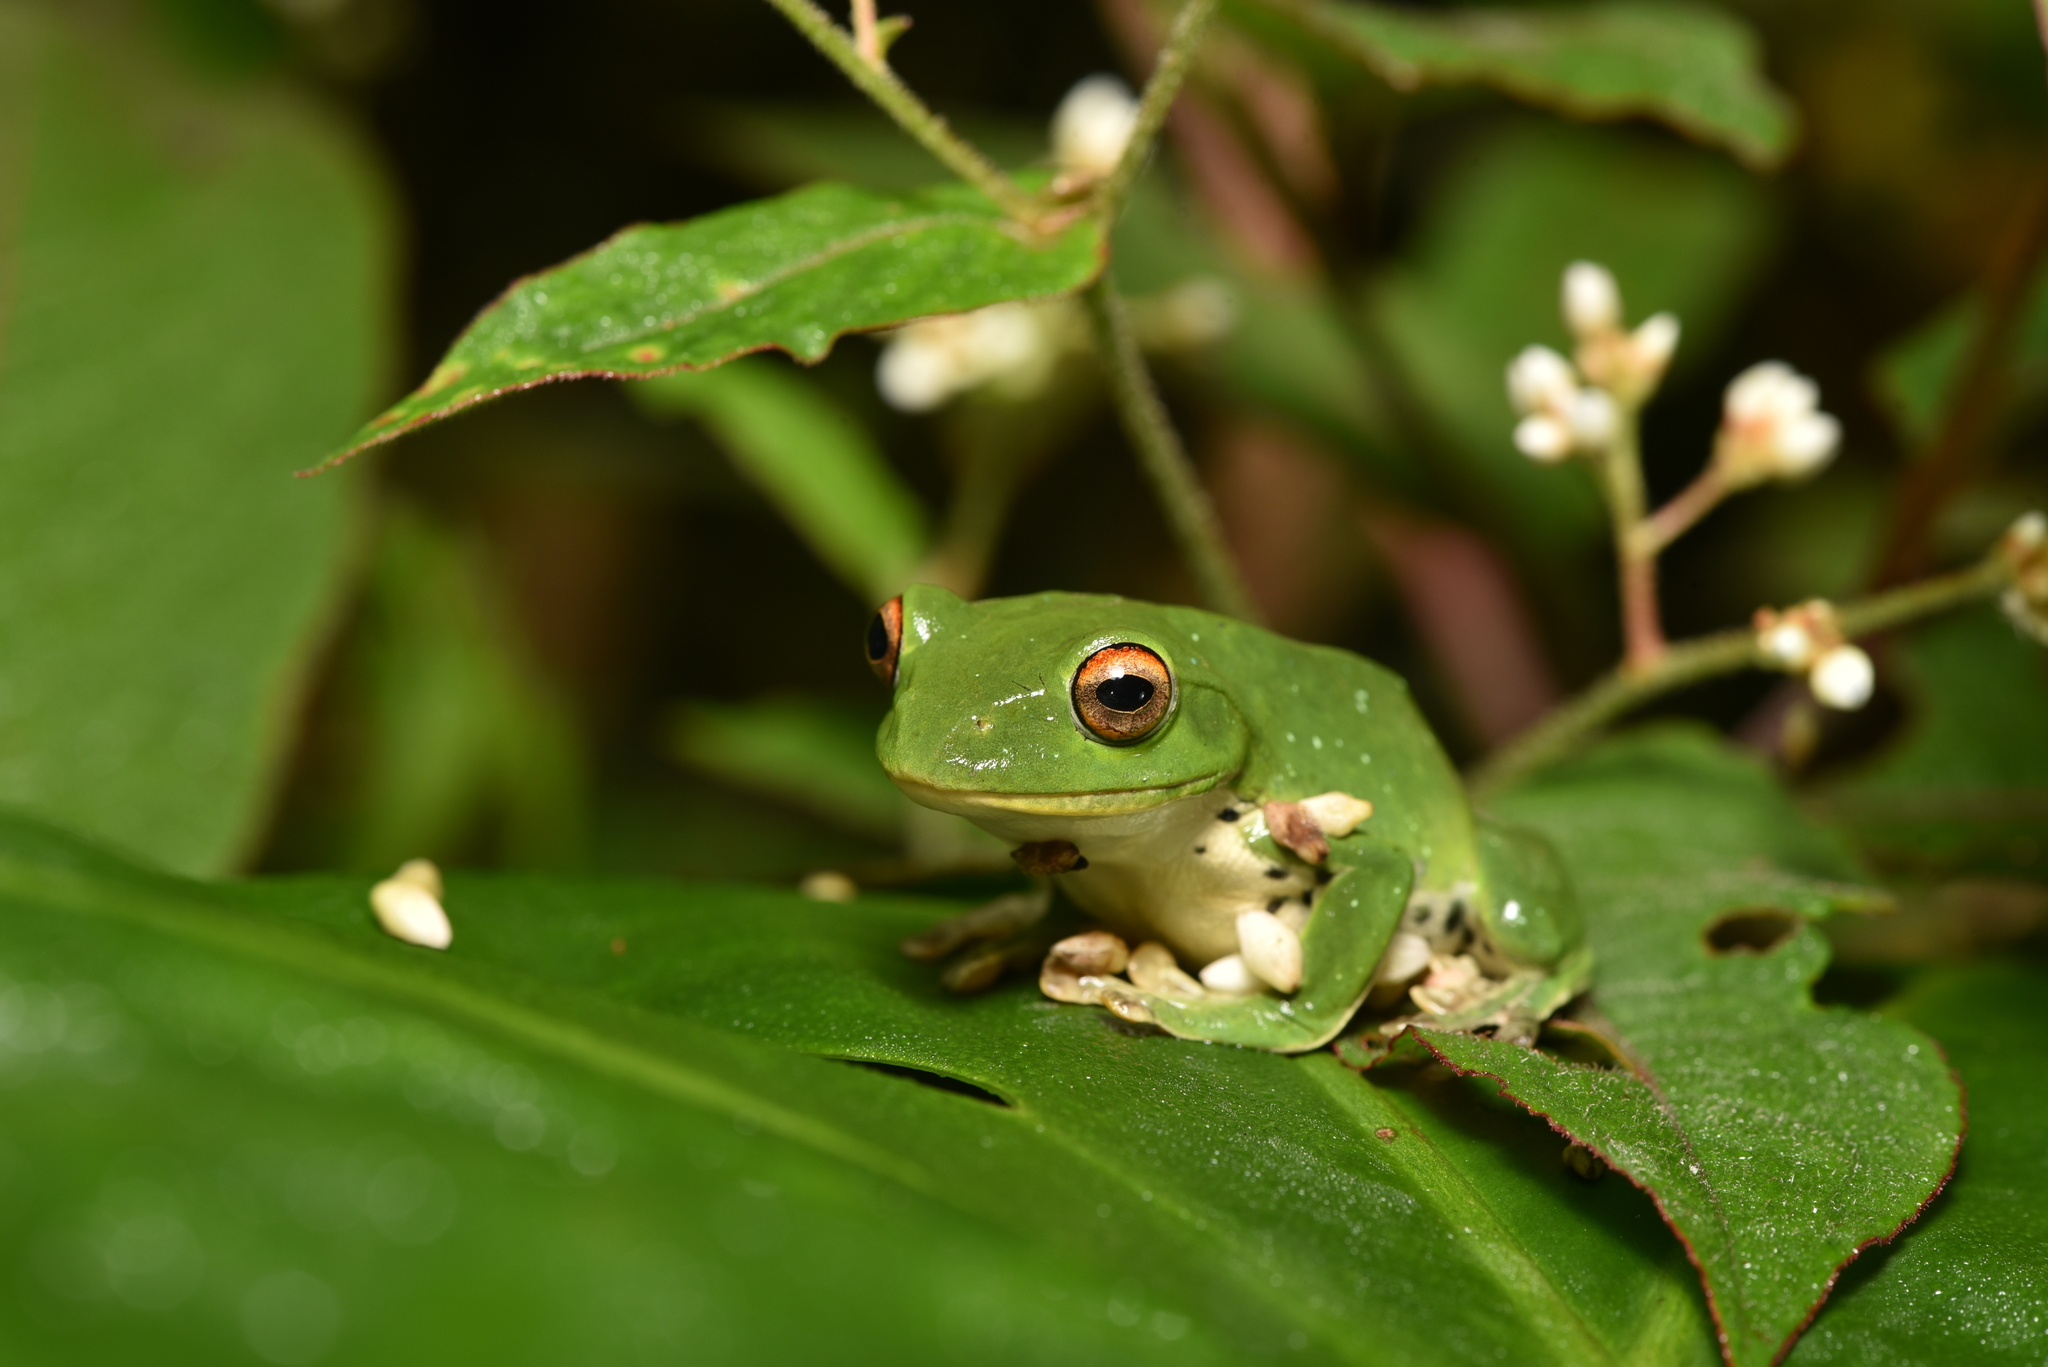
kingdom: Animalia
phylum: Chordata
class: Amphibia
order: Anura
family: Rhacophoridae
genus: Zhangixalus
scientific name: Zhangixalus moltrechti
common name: Moltrecht's treefrog
